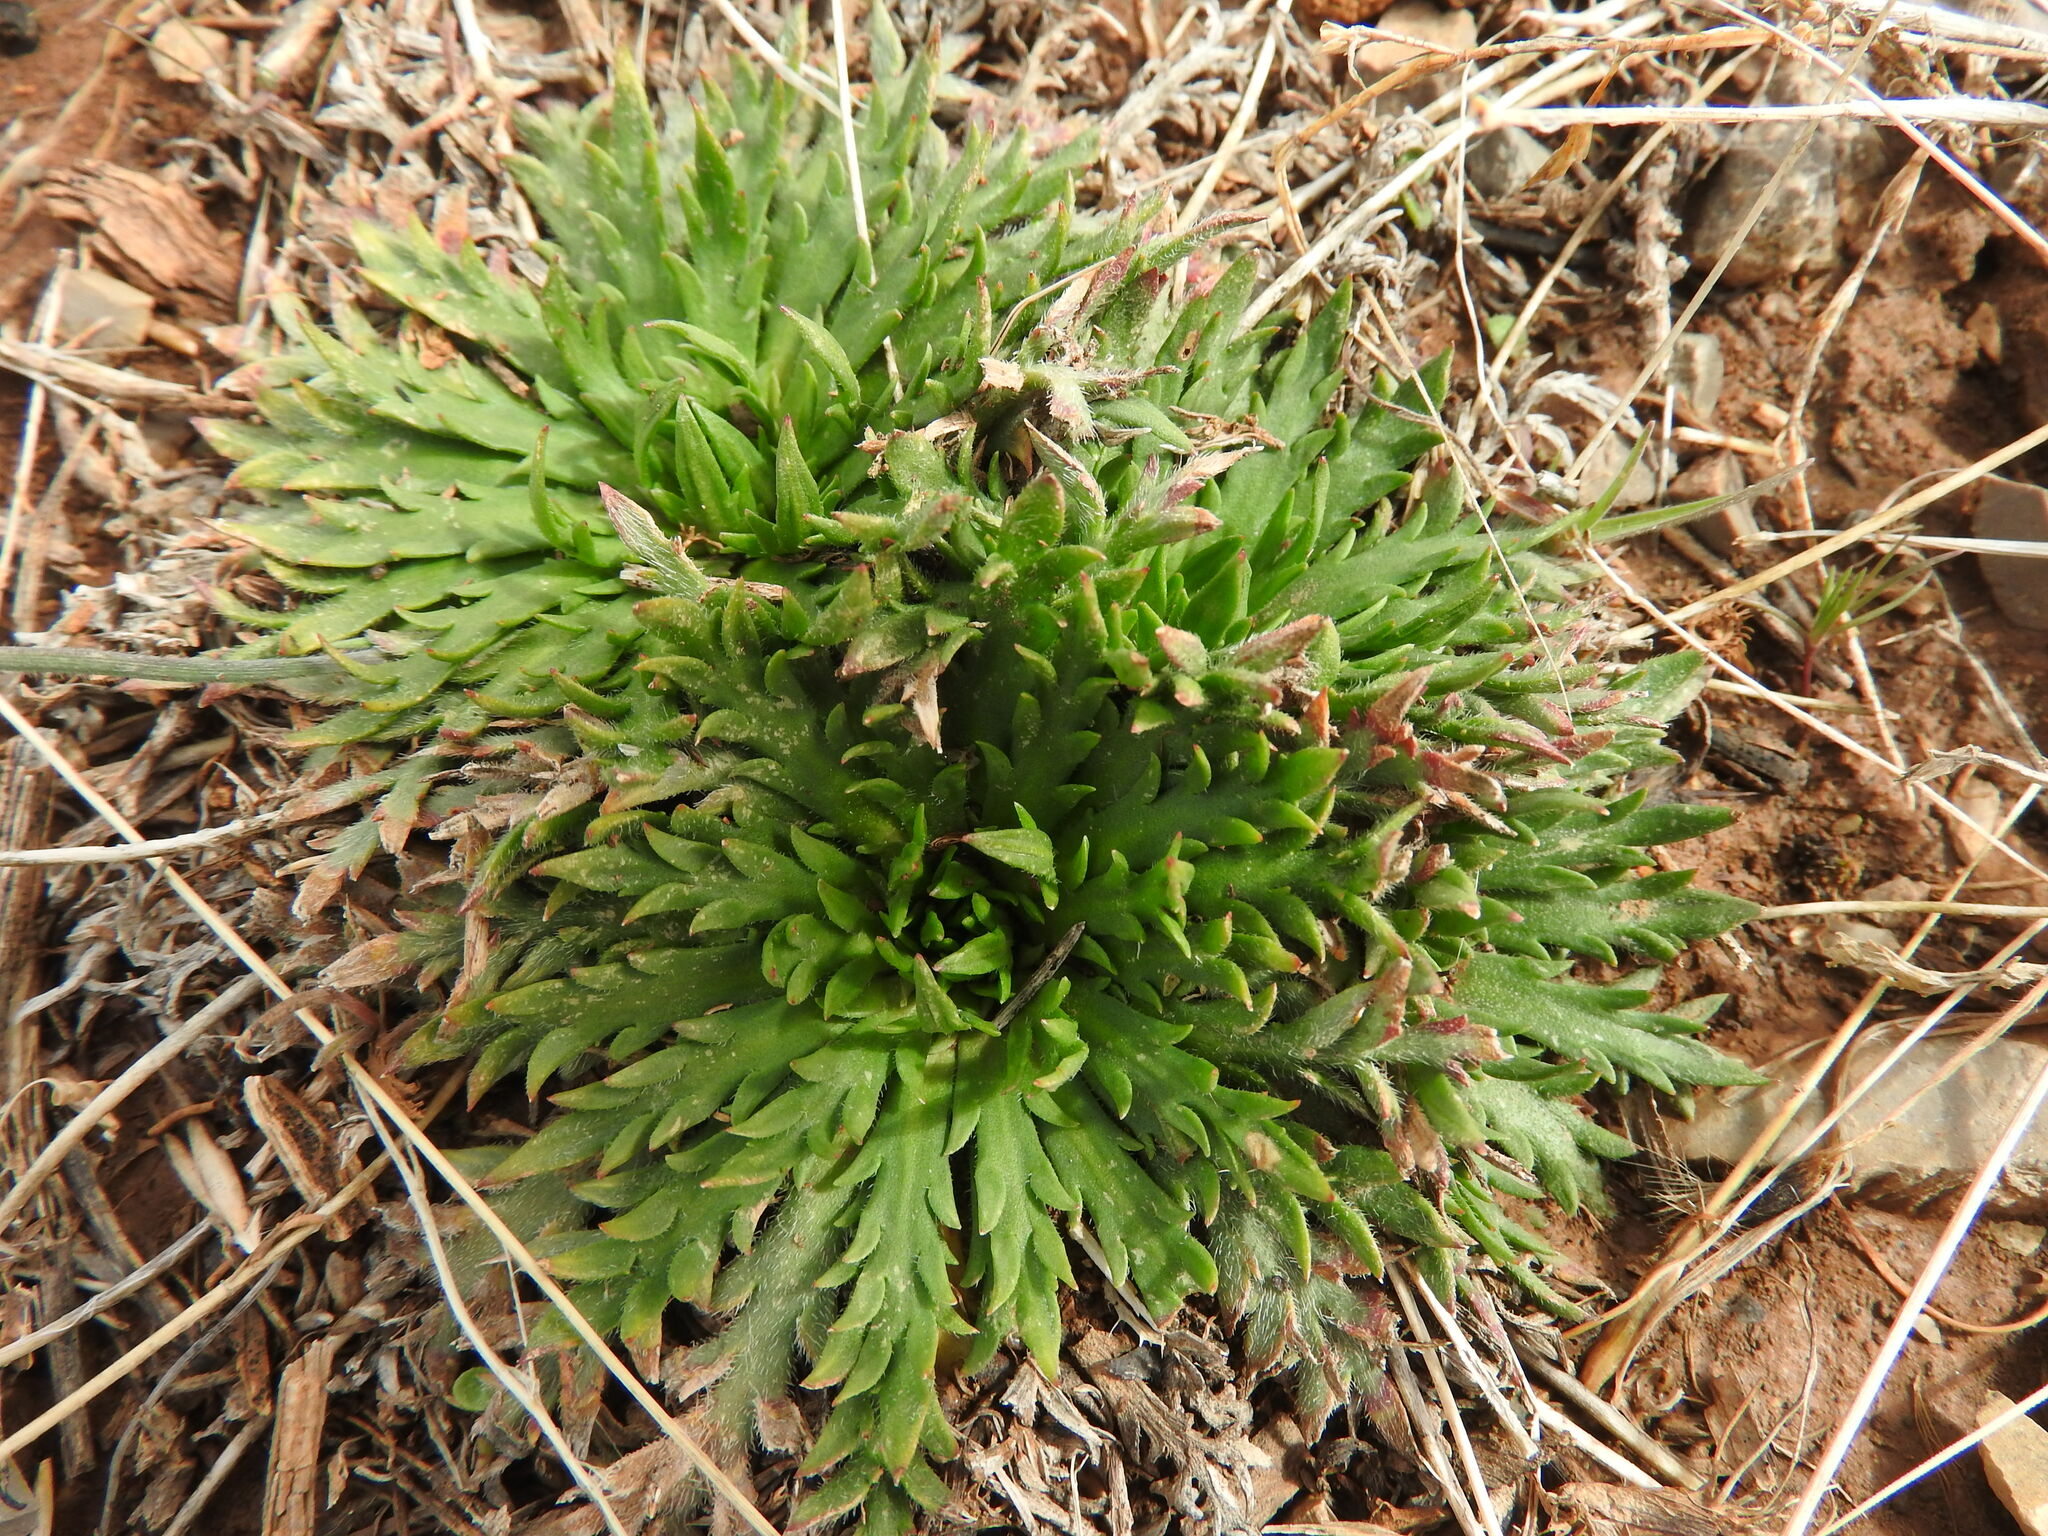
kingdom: Plantae
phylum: Tracheophyta
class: Magnoliopsida
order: Lamiales
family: Plantaginaceae
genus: Plantago
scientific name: Plantago coronopus
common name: Buck's-horn plantain
